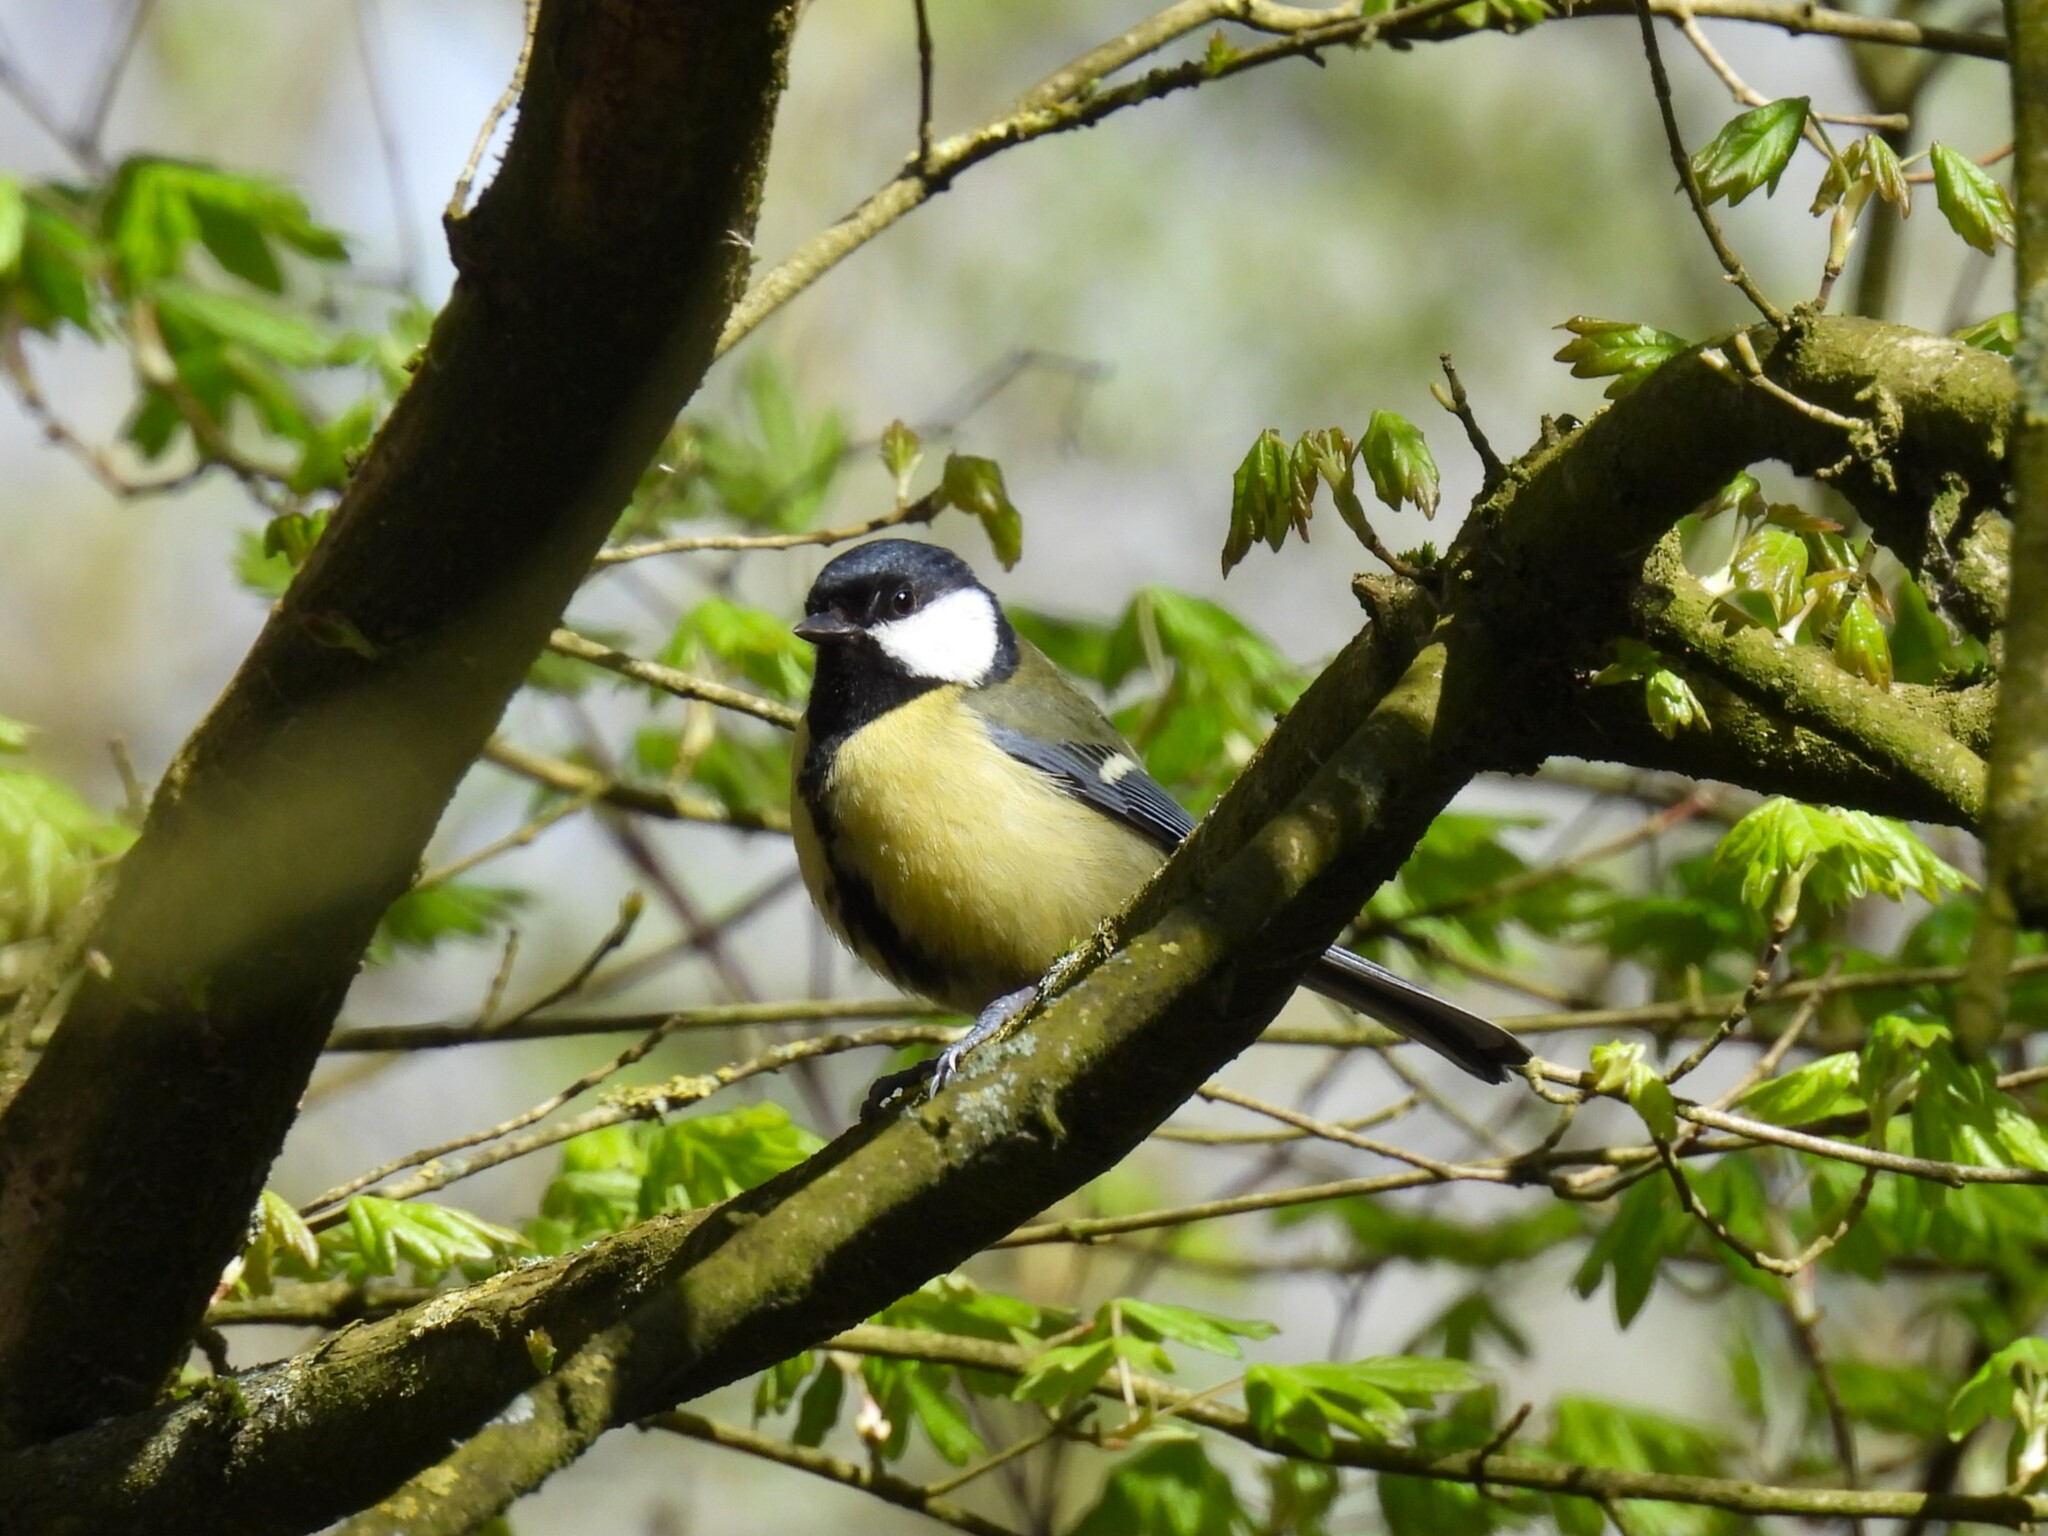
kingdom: Animalia
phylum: Chordata
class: Aves
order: Passeriformes
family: Paridae
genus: Parus
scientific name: Parus major
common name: Great tit
